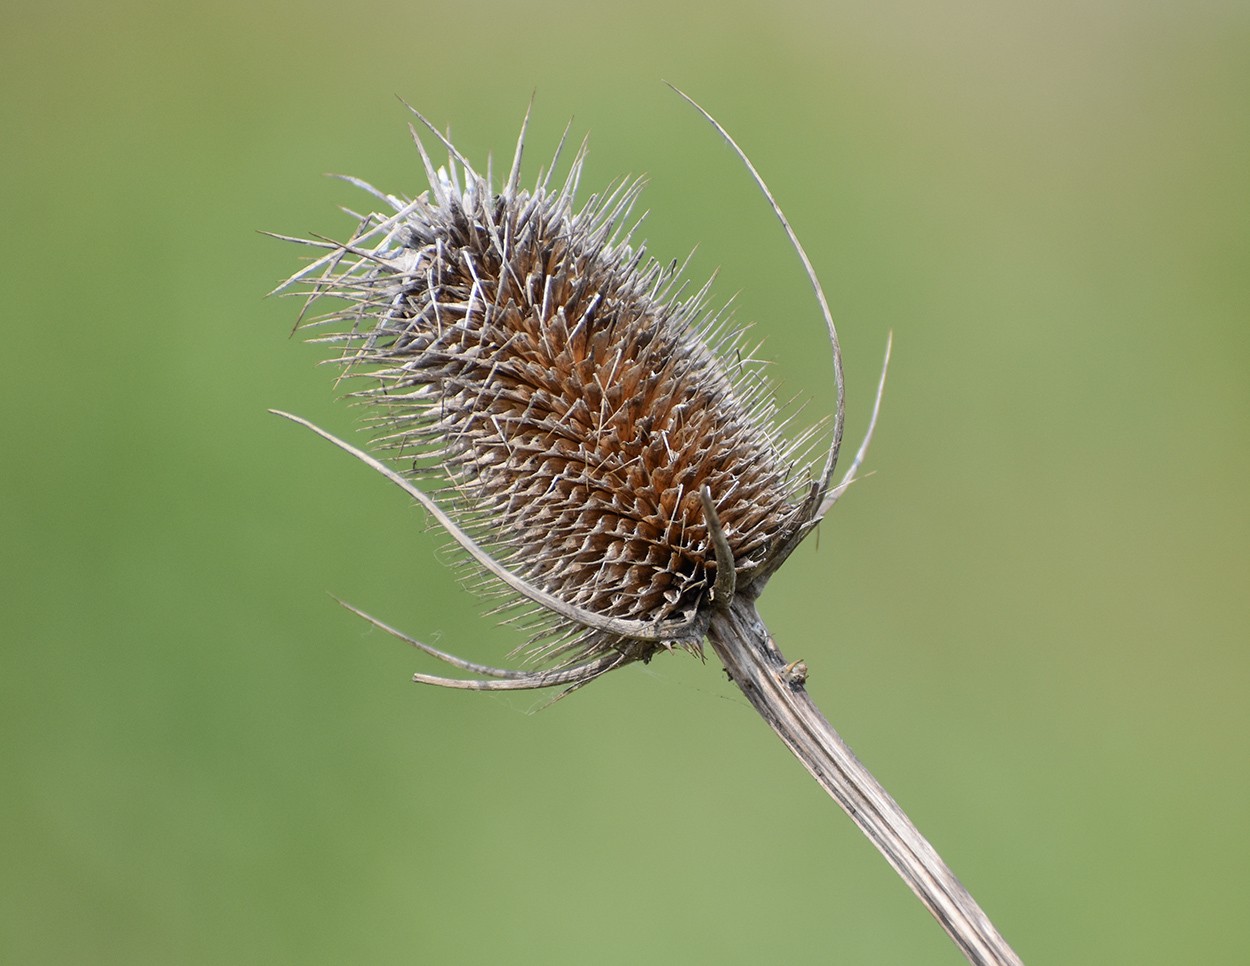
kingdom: Plantae
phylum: Tracheophyta
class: Magnoliopsida
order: Dipsacales
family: Caprifoliaceae
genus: Dipsacus
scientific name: Dipsacus fullonum
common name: Teasel
